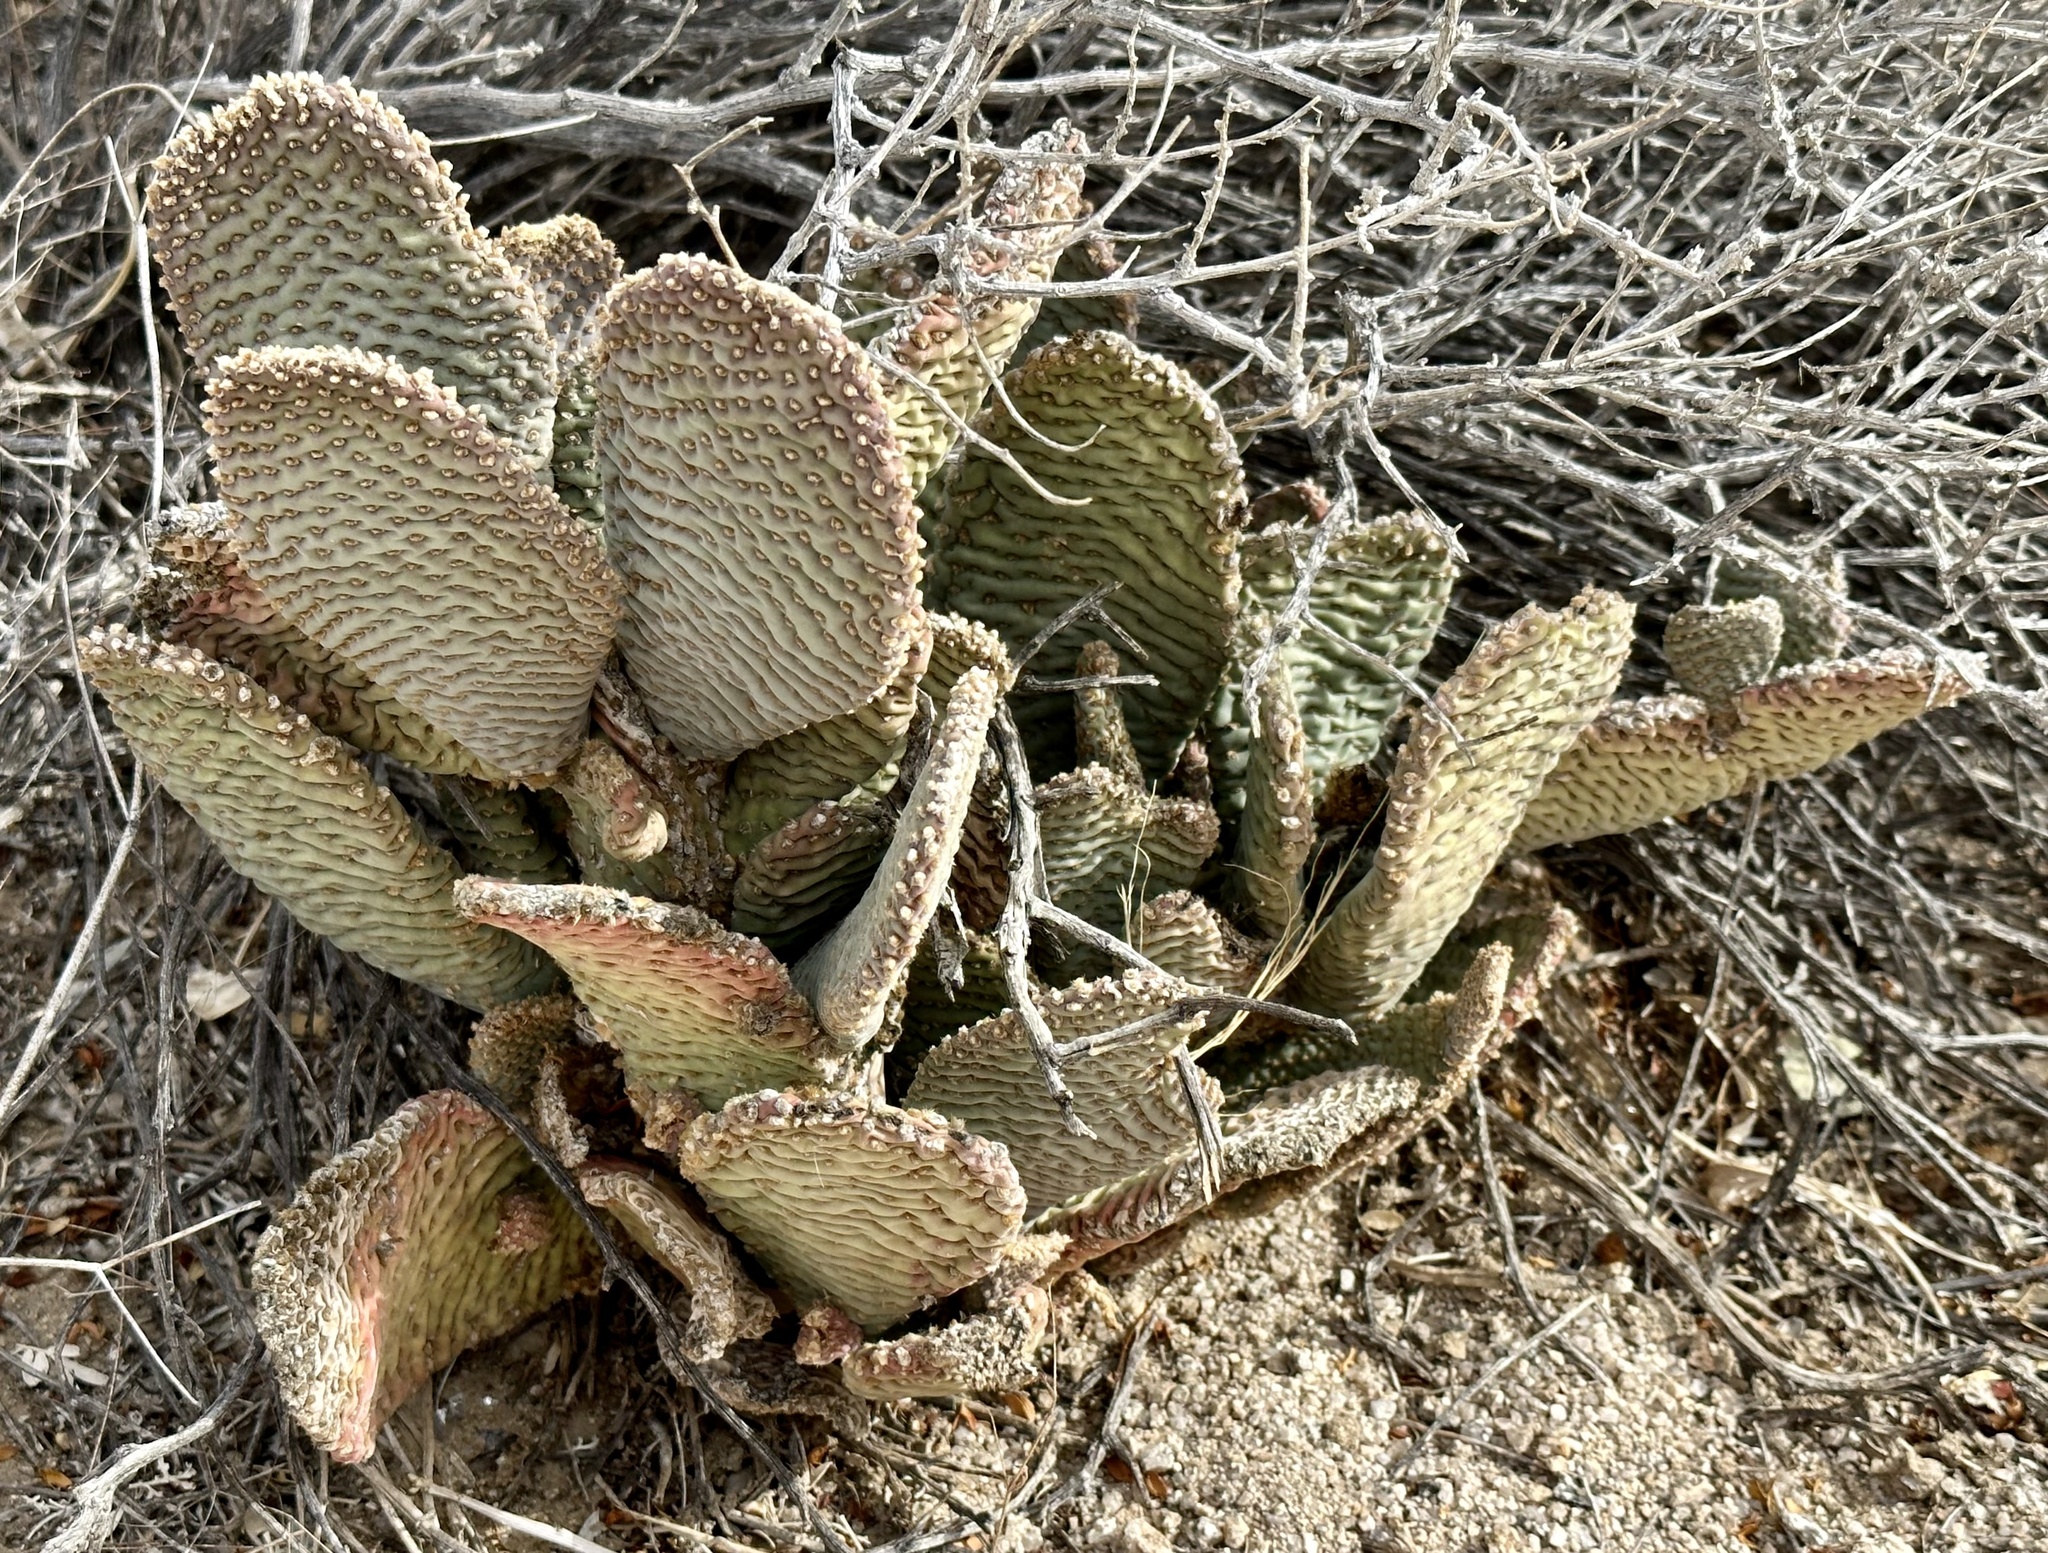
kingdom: Plantae
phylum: Tracheophyta
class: Magnoliopsida
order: Caryophyllales
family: Cactaceae
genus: Opuntia
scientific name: Opuntia basilaris
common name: Beavertail prickly-pear
